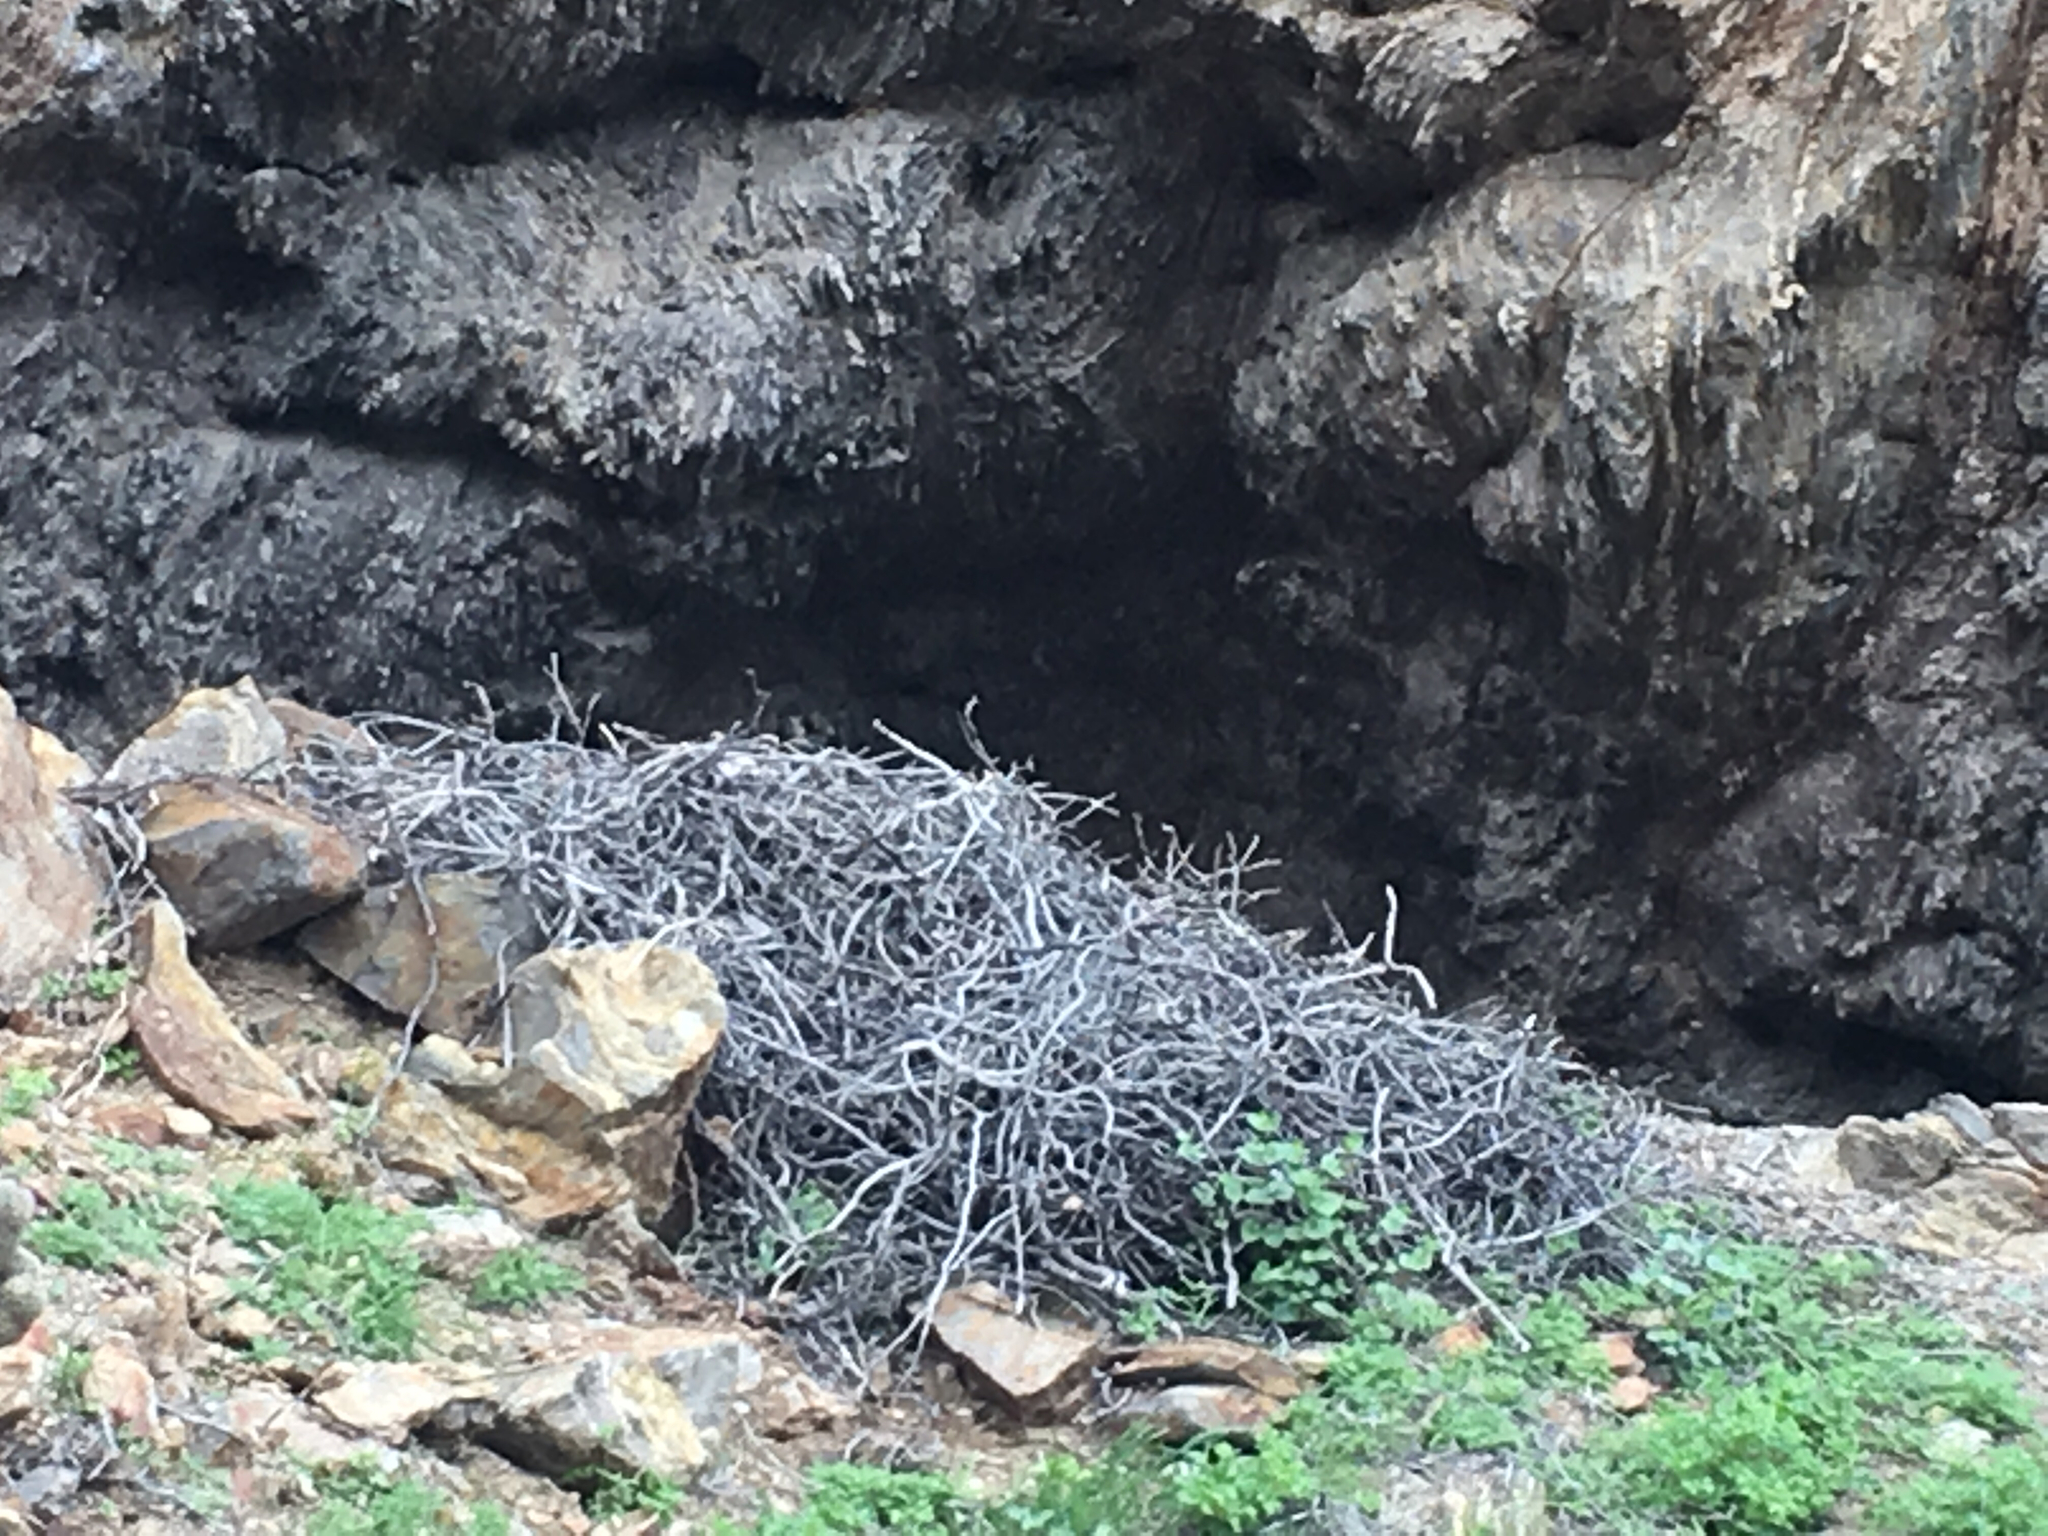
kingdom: Animalia
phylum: Chordata
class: Aves
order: Passeriformes
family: Corvidae
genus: Corvus
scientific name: Corvus corax
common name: Common raven
